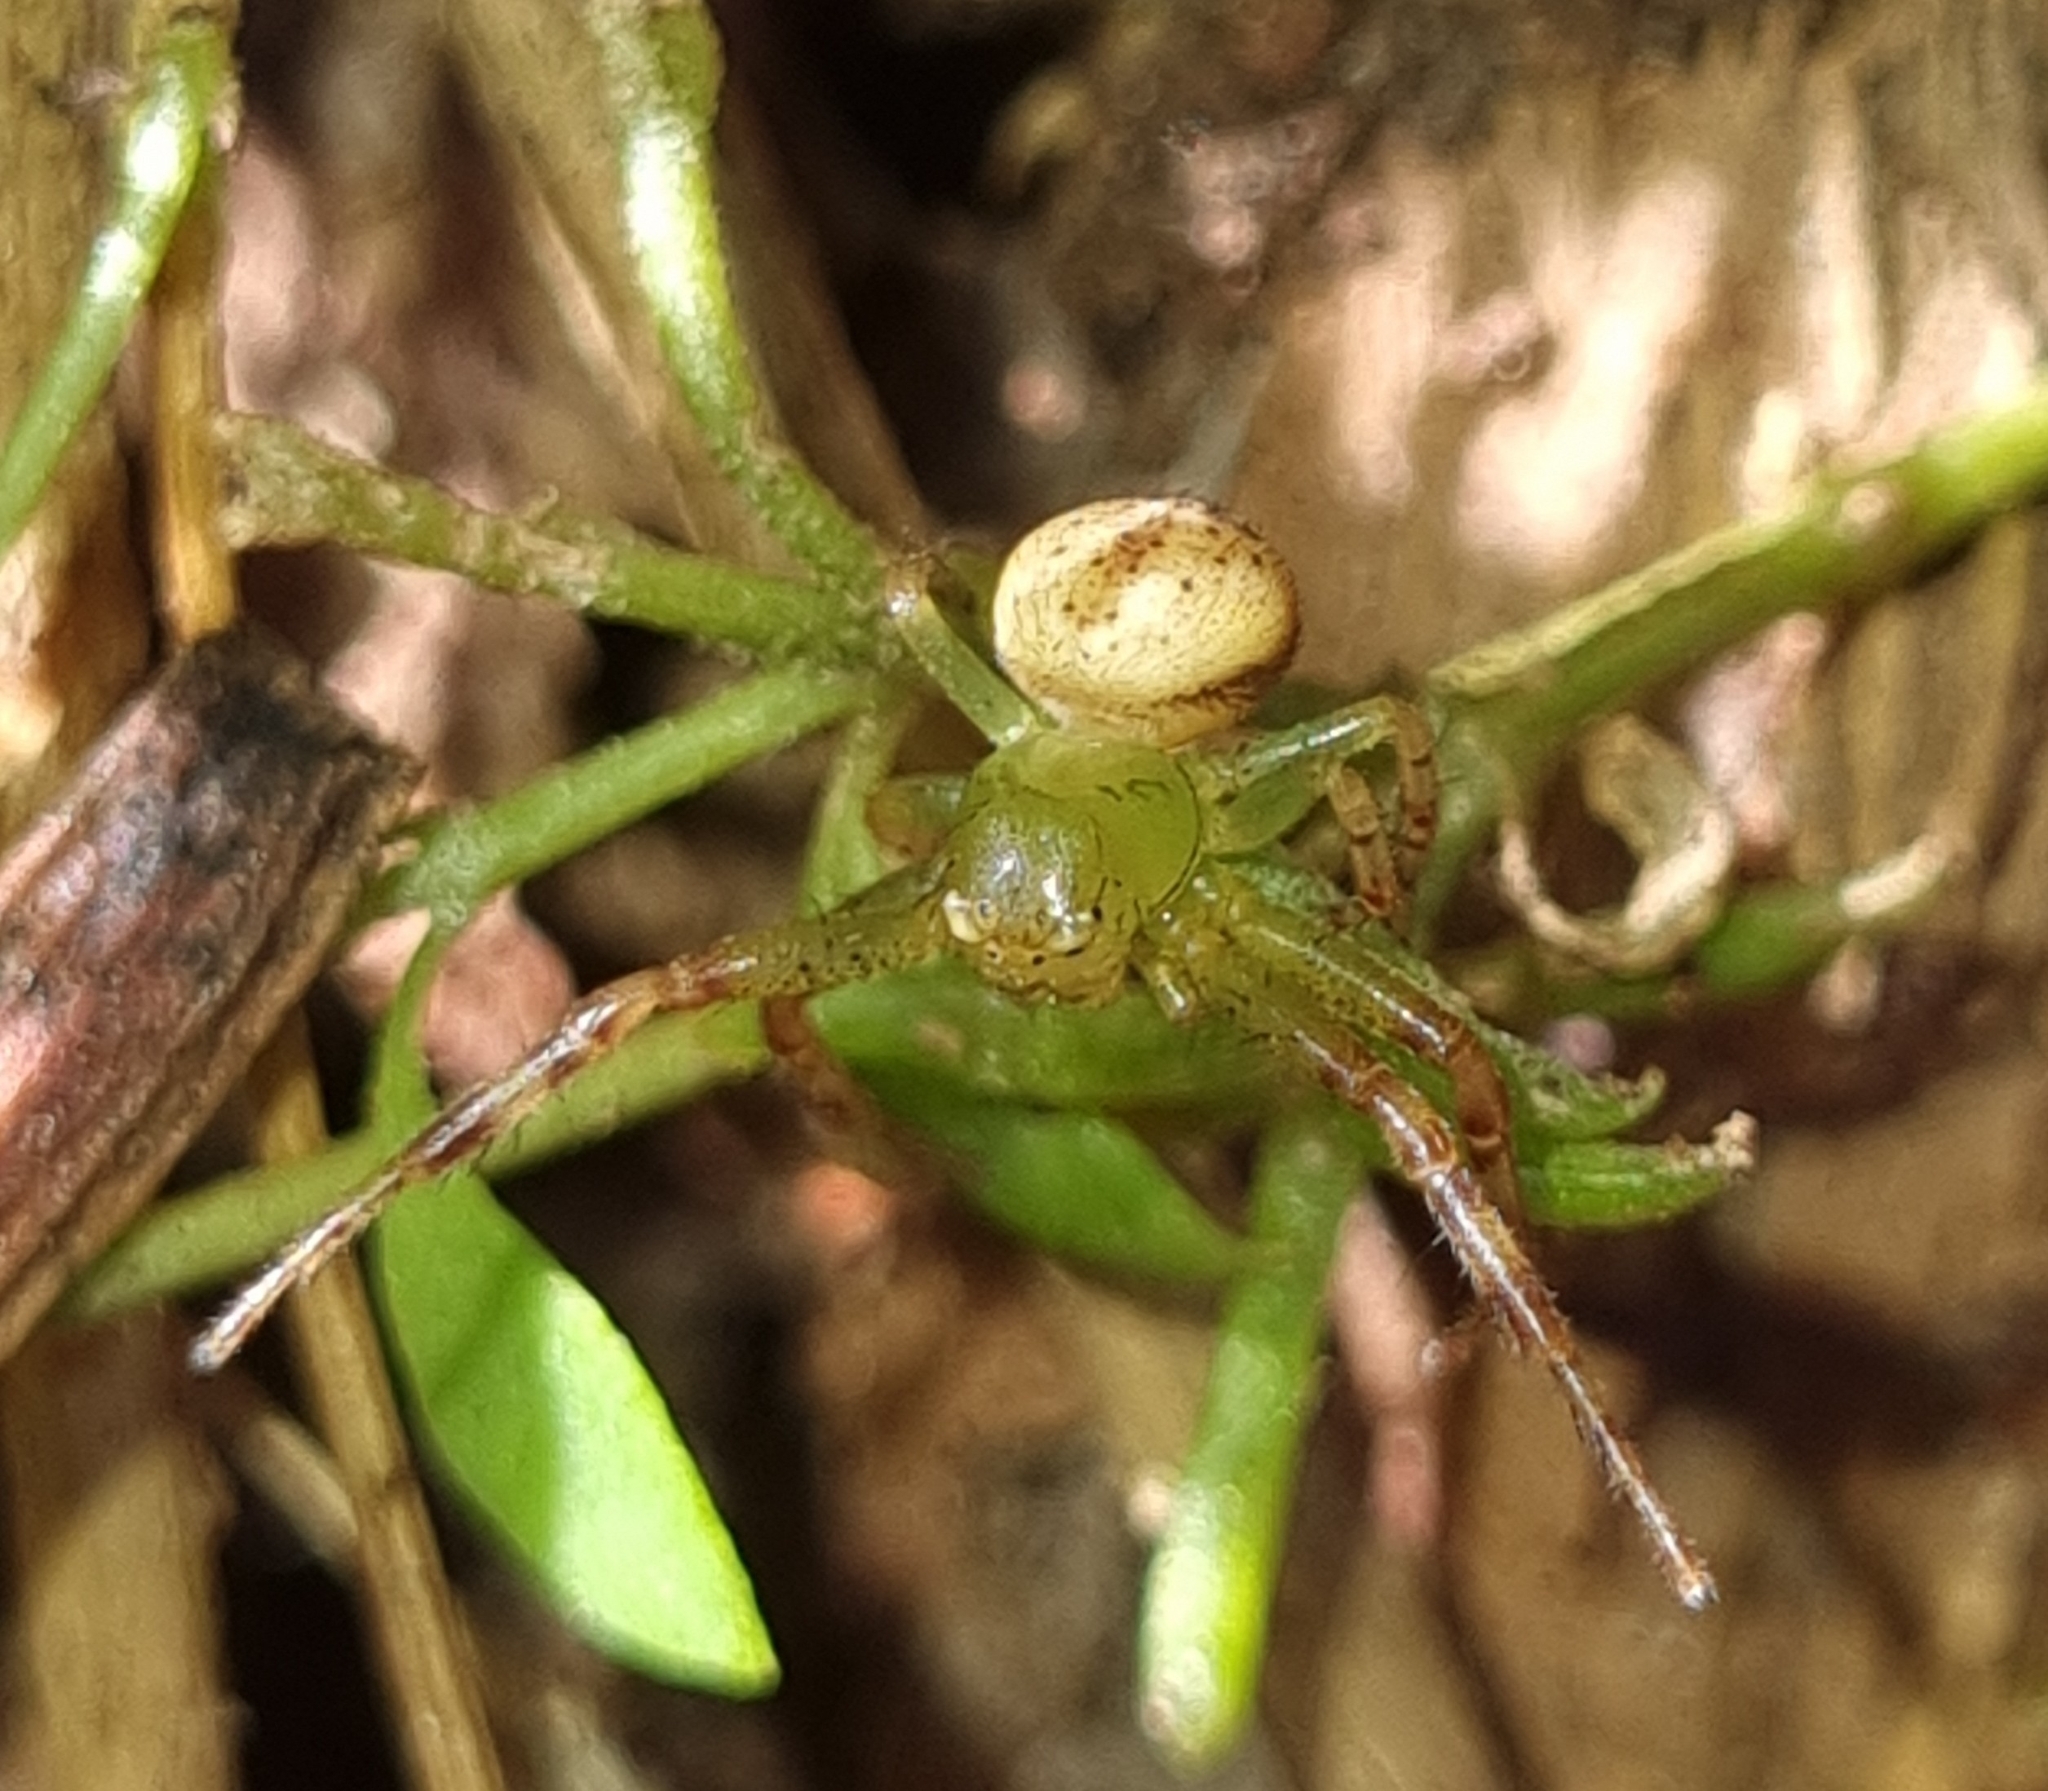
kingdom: Animalia
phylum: Arthropoda
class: Arachnida
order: Araneae
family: Thomisidae
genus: Australomisidia
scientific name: Australomisidia pilula
